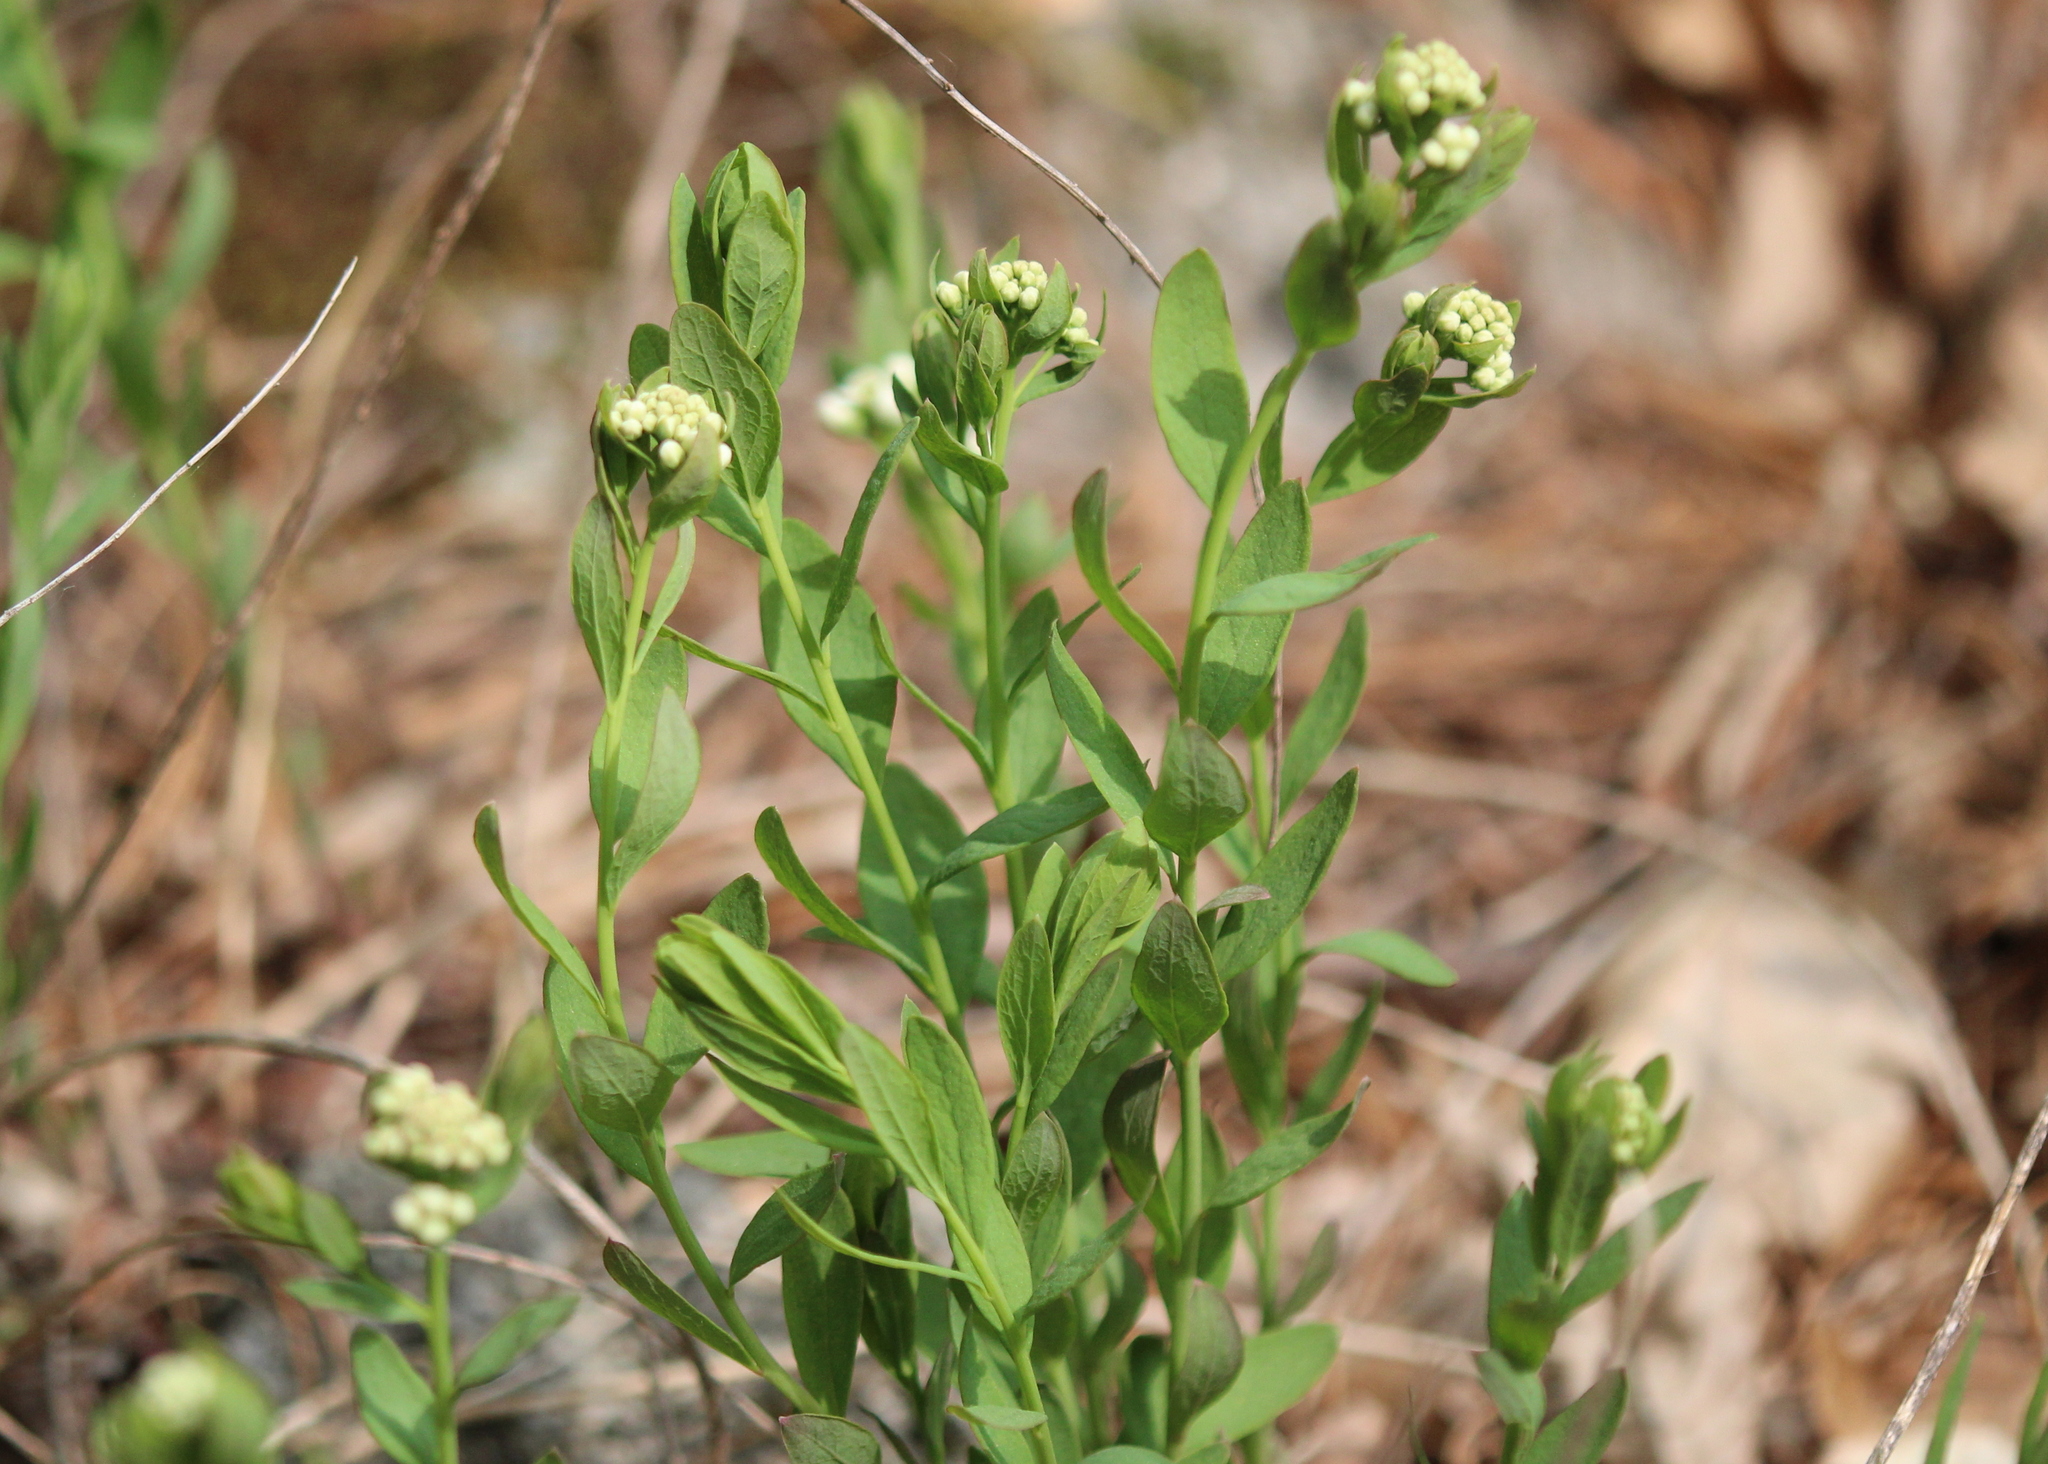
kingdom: Plantae
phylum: Tracheophyta
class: Magnoliopsida
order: Santalales
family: Comandraceae
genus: Comandra
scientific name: Comandra umbellata
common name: Bastard toadflax
